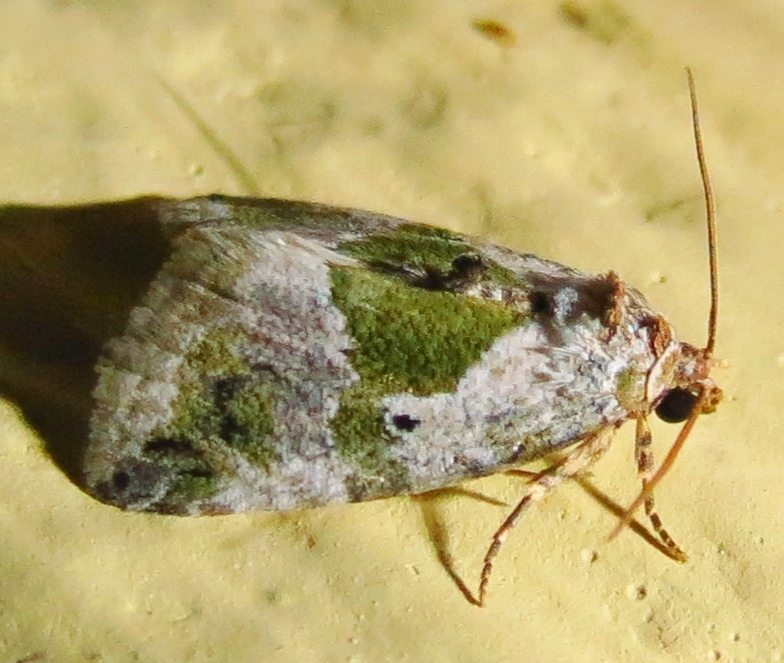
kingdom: Animalia
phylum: Arthropoda
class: Insecta
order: Lepidoptera
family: Noctuidae
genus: Maliattha
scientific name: Maliattha synochitis
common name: Black-dotted glyph
